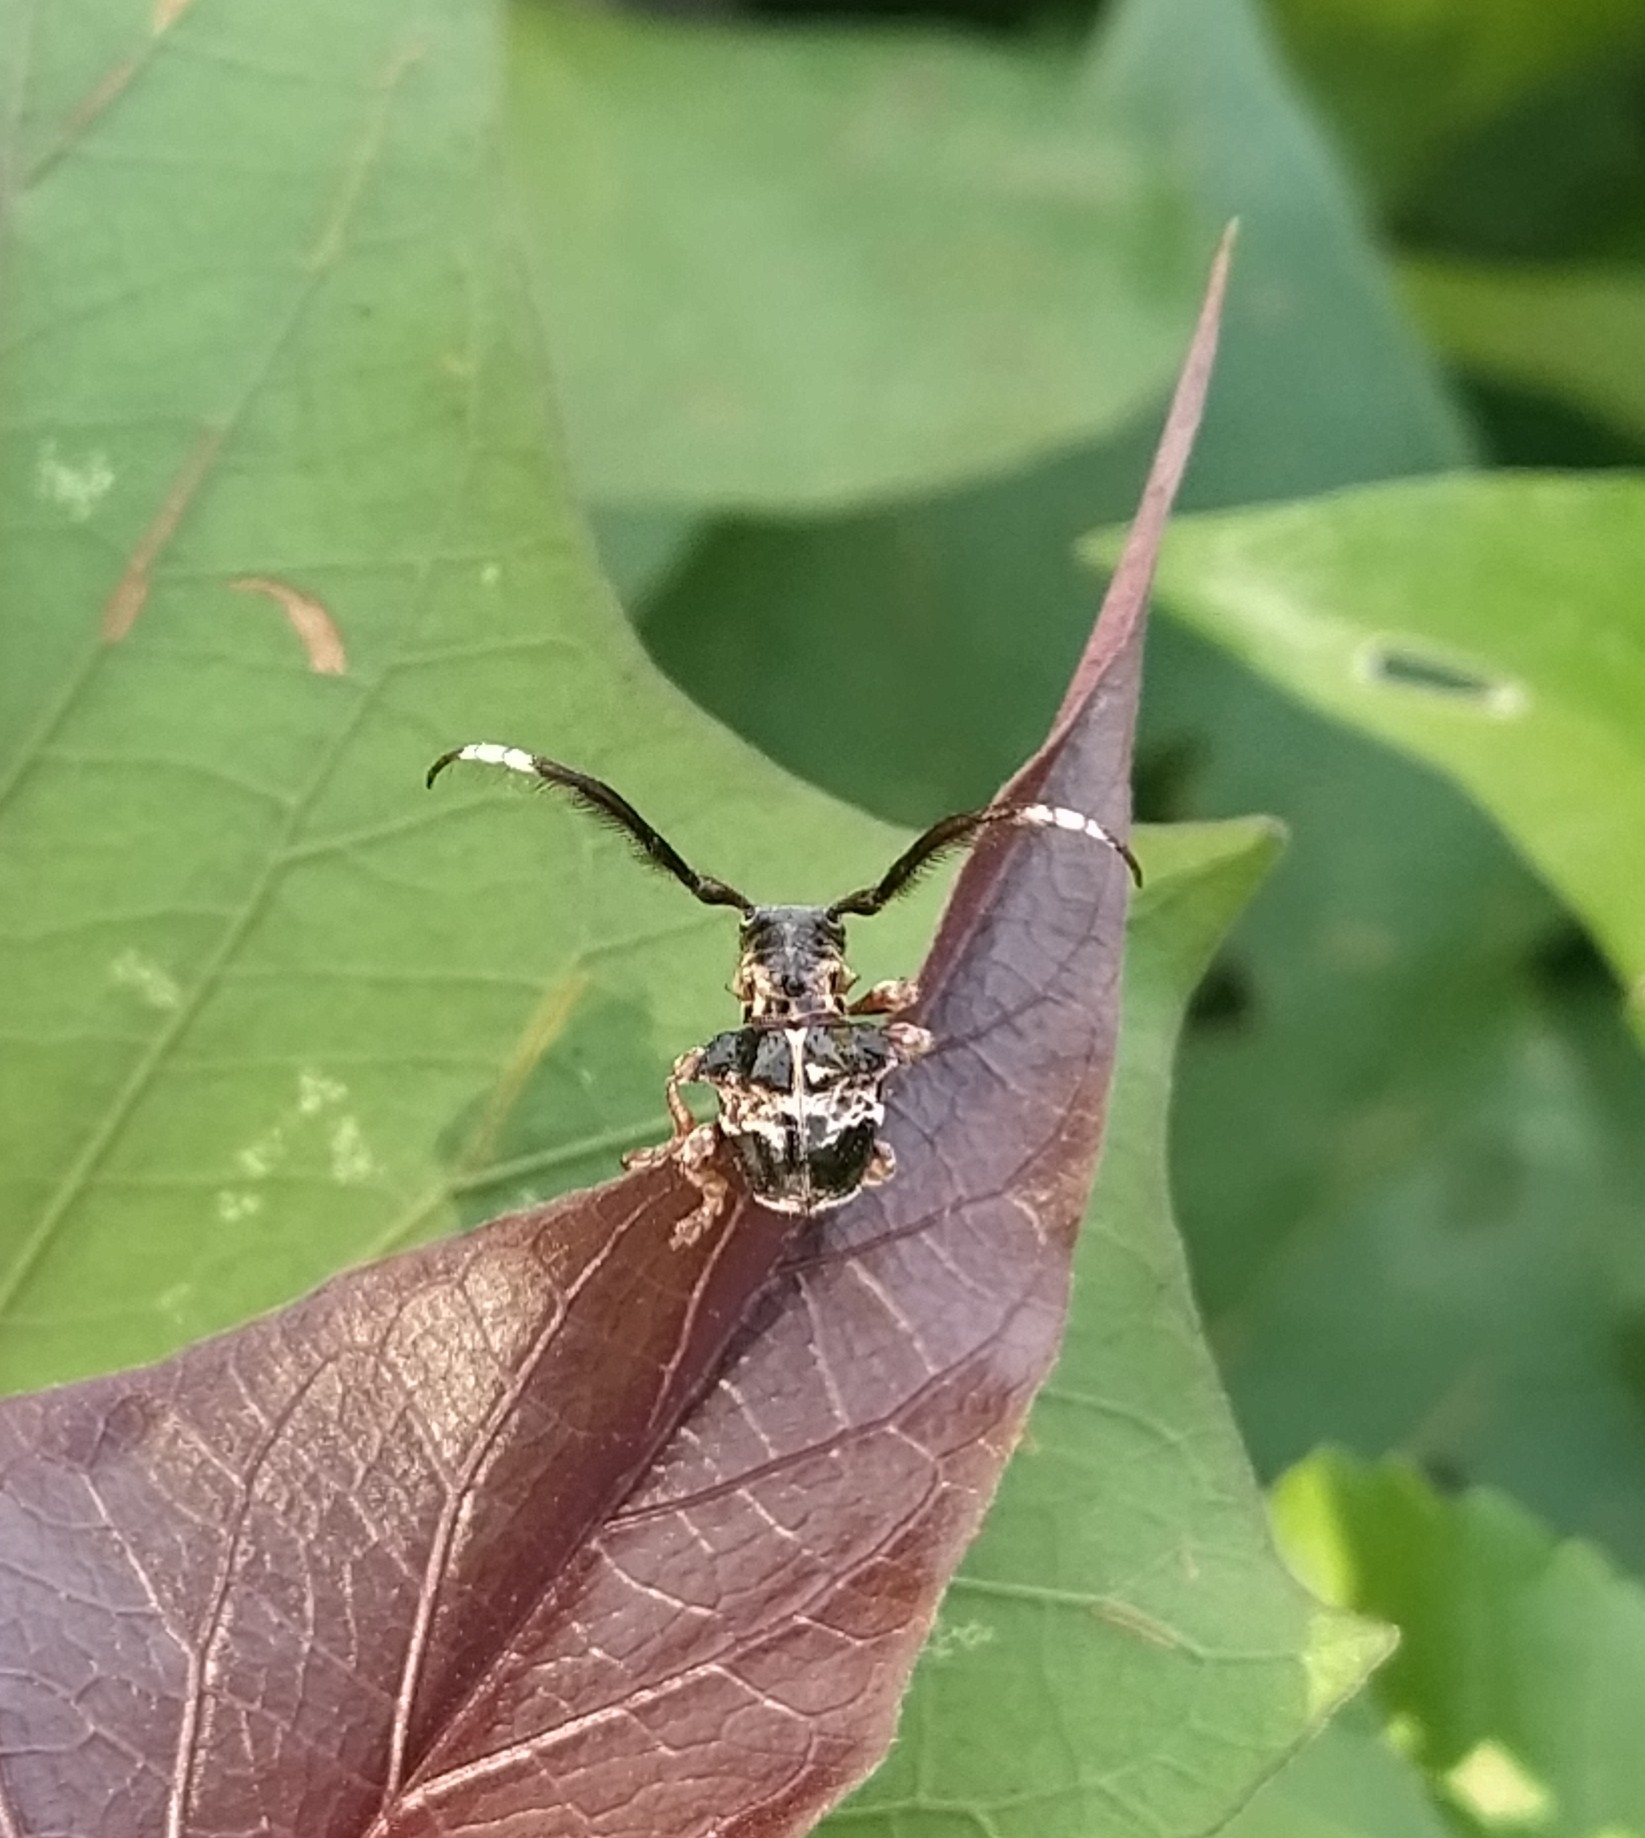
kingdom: Animalia
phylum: Arthropoda
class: Insecta
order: Coleoptera
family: Cerambycidae
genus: Tessarecphora
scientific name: Tessarecphora arachnoides
